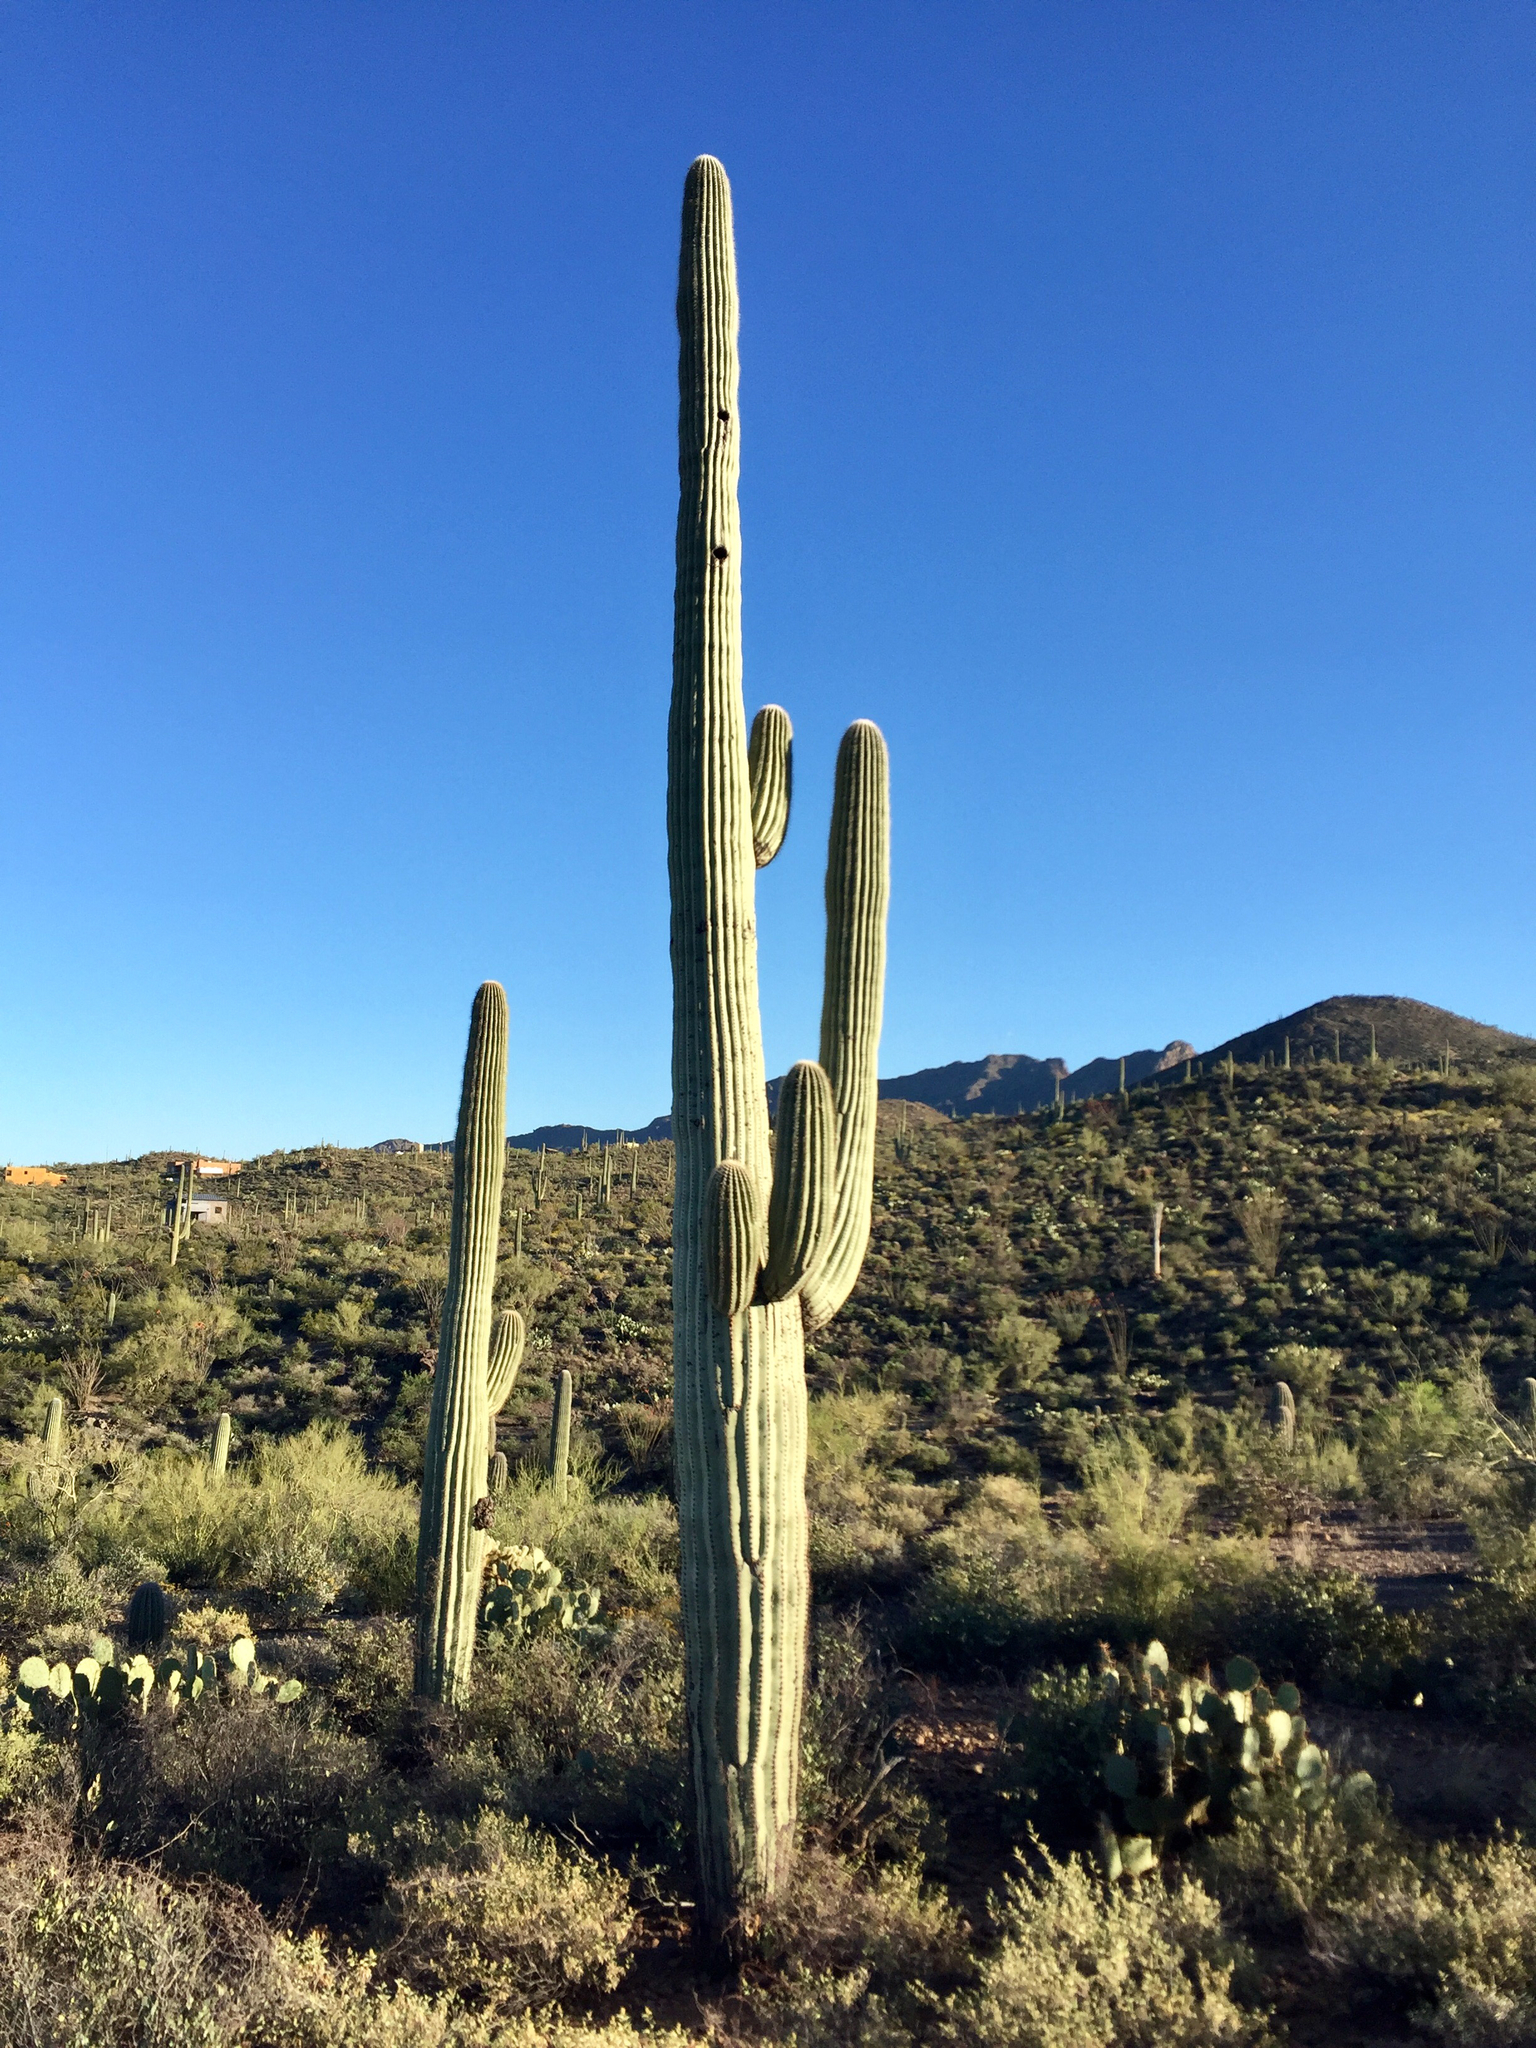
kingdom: Plantae
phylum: Tracheophyta
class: Magnoliopsida
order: Caryophyllales
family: Cactaceae
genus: Carnegiea
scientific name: Carnegiea gigantea
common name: Saguaro
